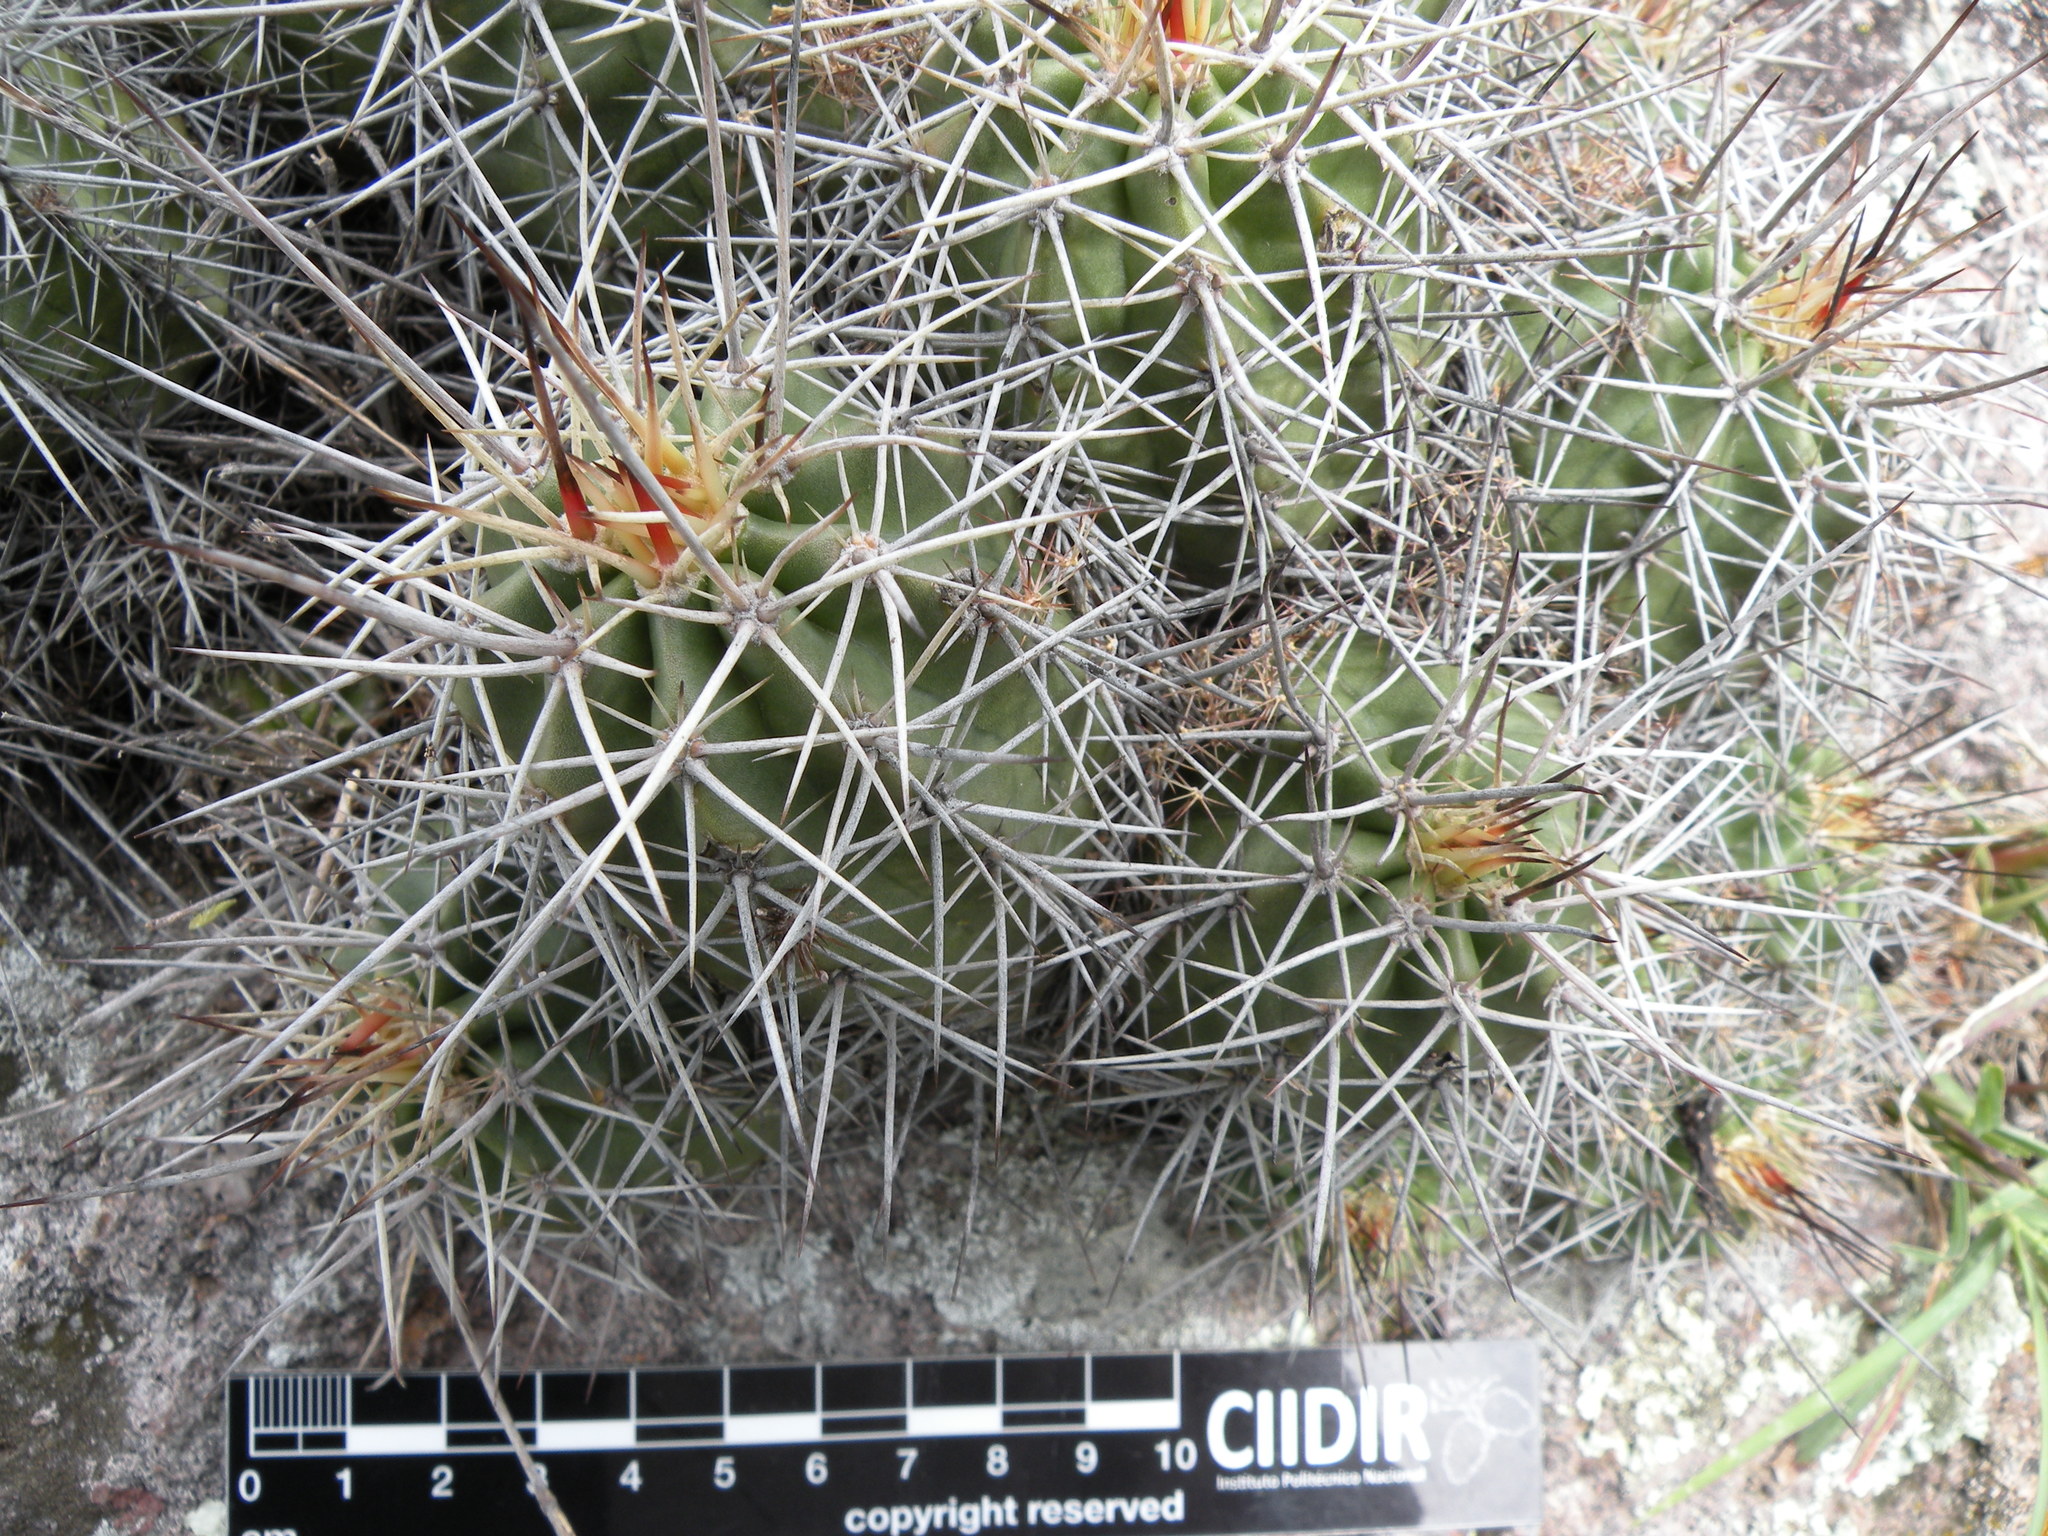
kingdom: Plantae
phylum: Tracheophyta
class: Magnoliopsida
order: Caryophyllales
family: Cactaceae
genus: Echinocereus
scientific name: Echinocereus polyacanthus
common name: Mojave mound cactus
